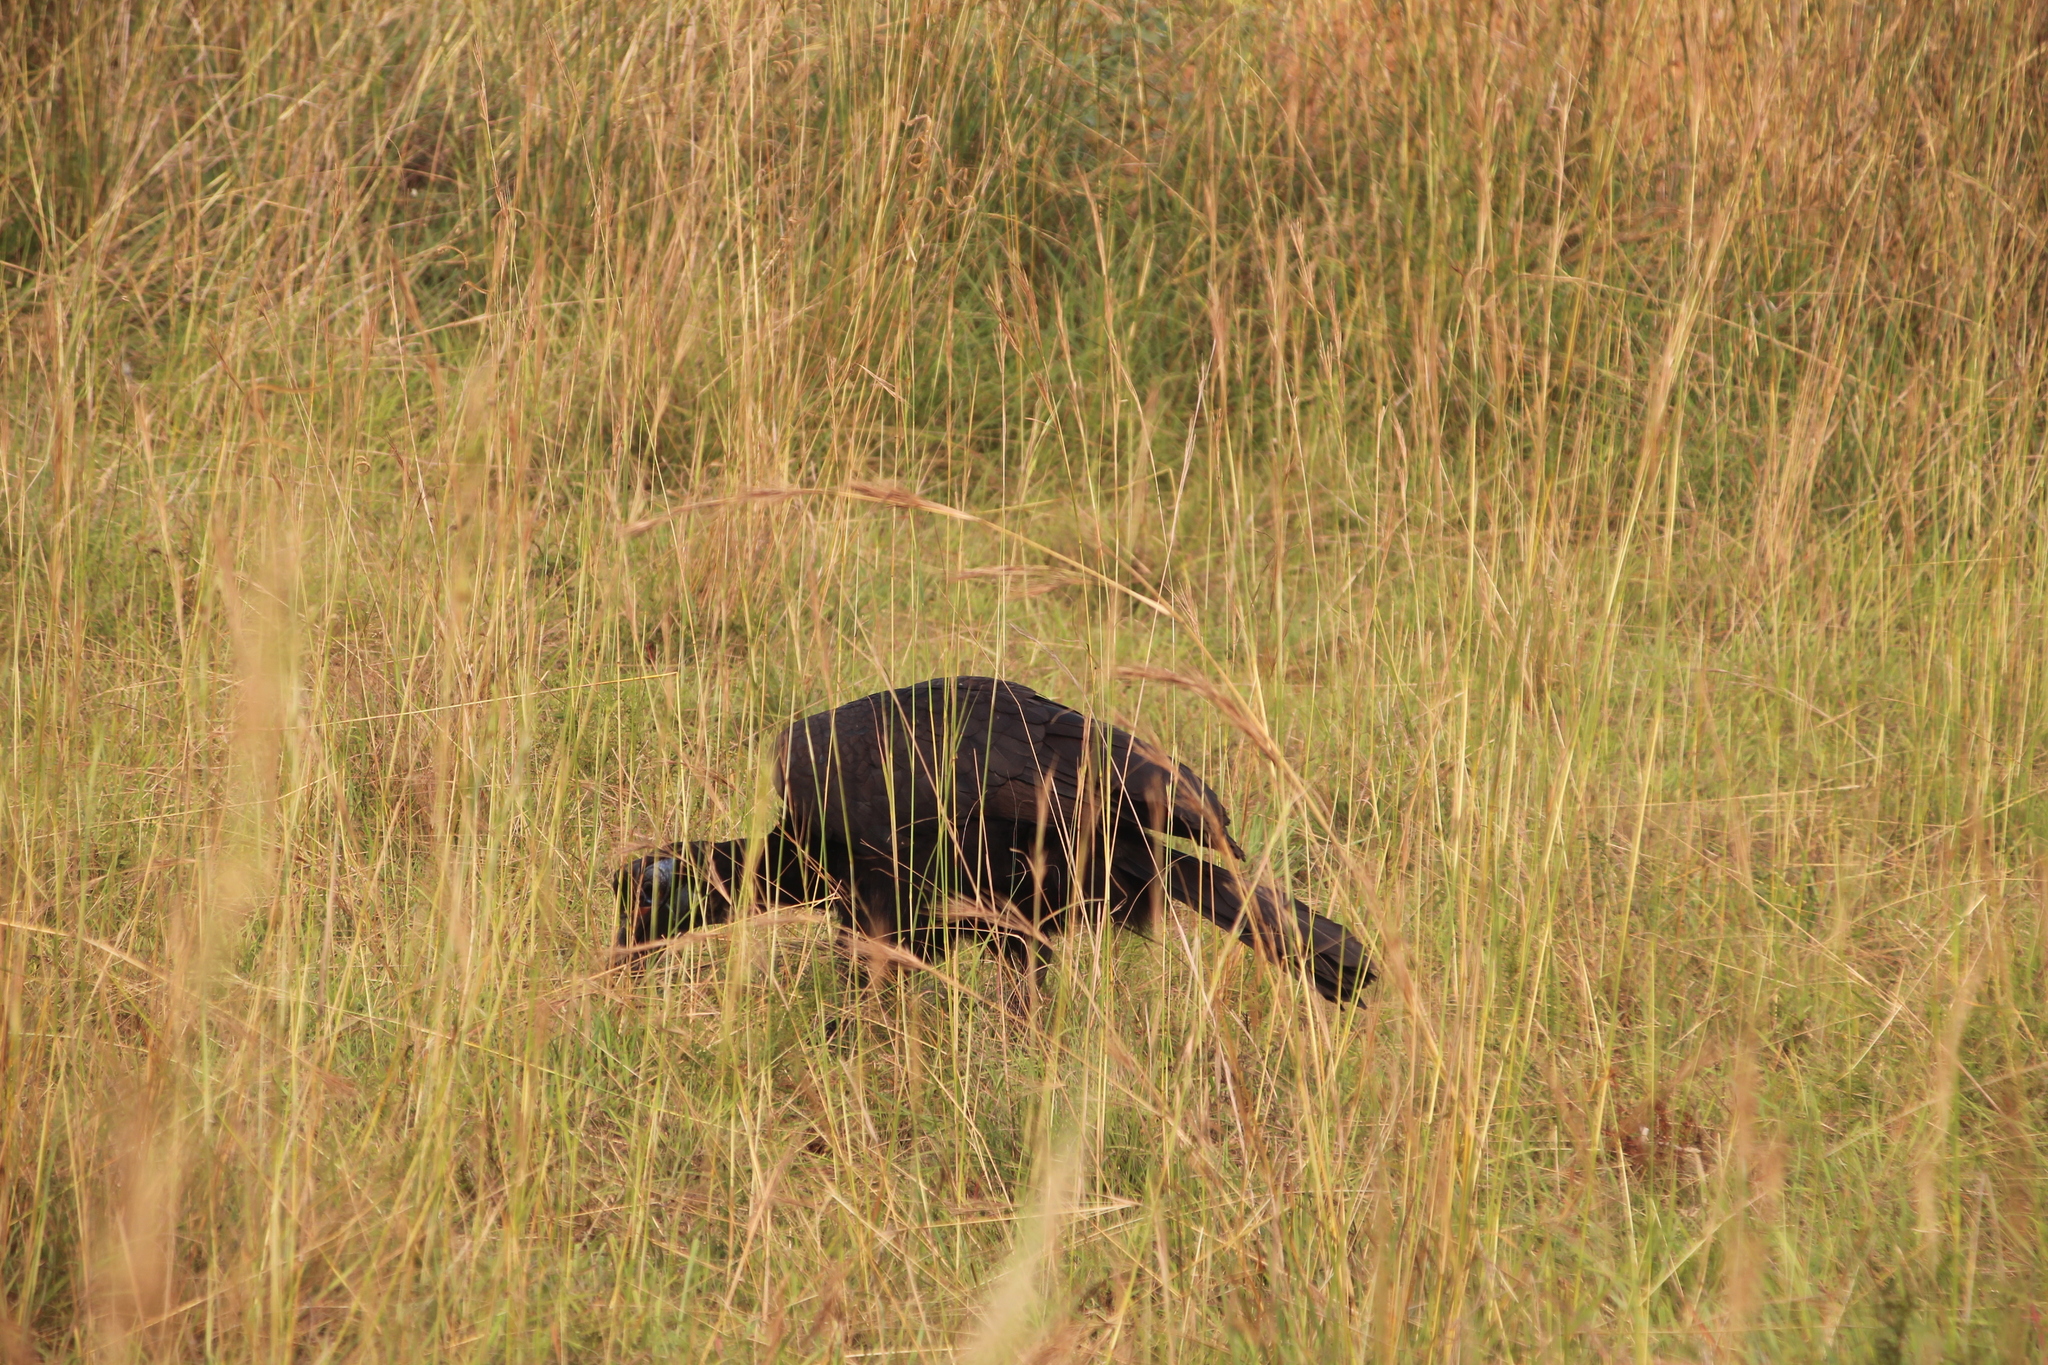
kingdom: Animalia
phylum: Chordata
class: Aves
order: Bucerotiformes
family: Bucorvidae
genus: Bucorvus
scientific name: Bucorvus abyssinicus
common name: Abyssinian ground hornbill
